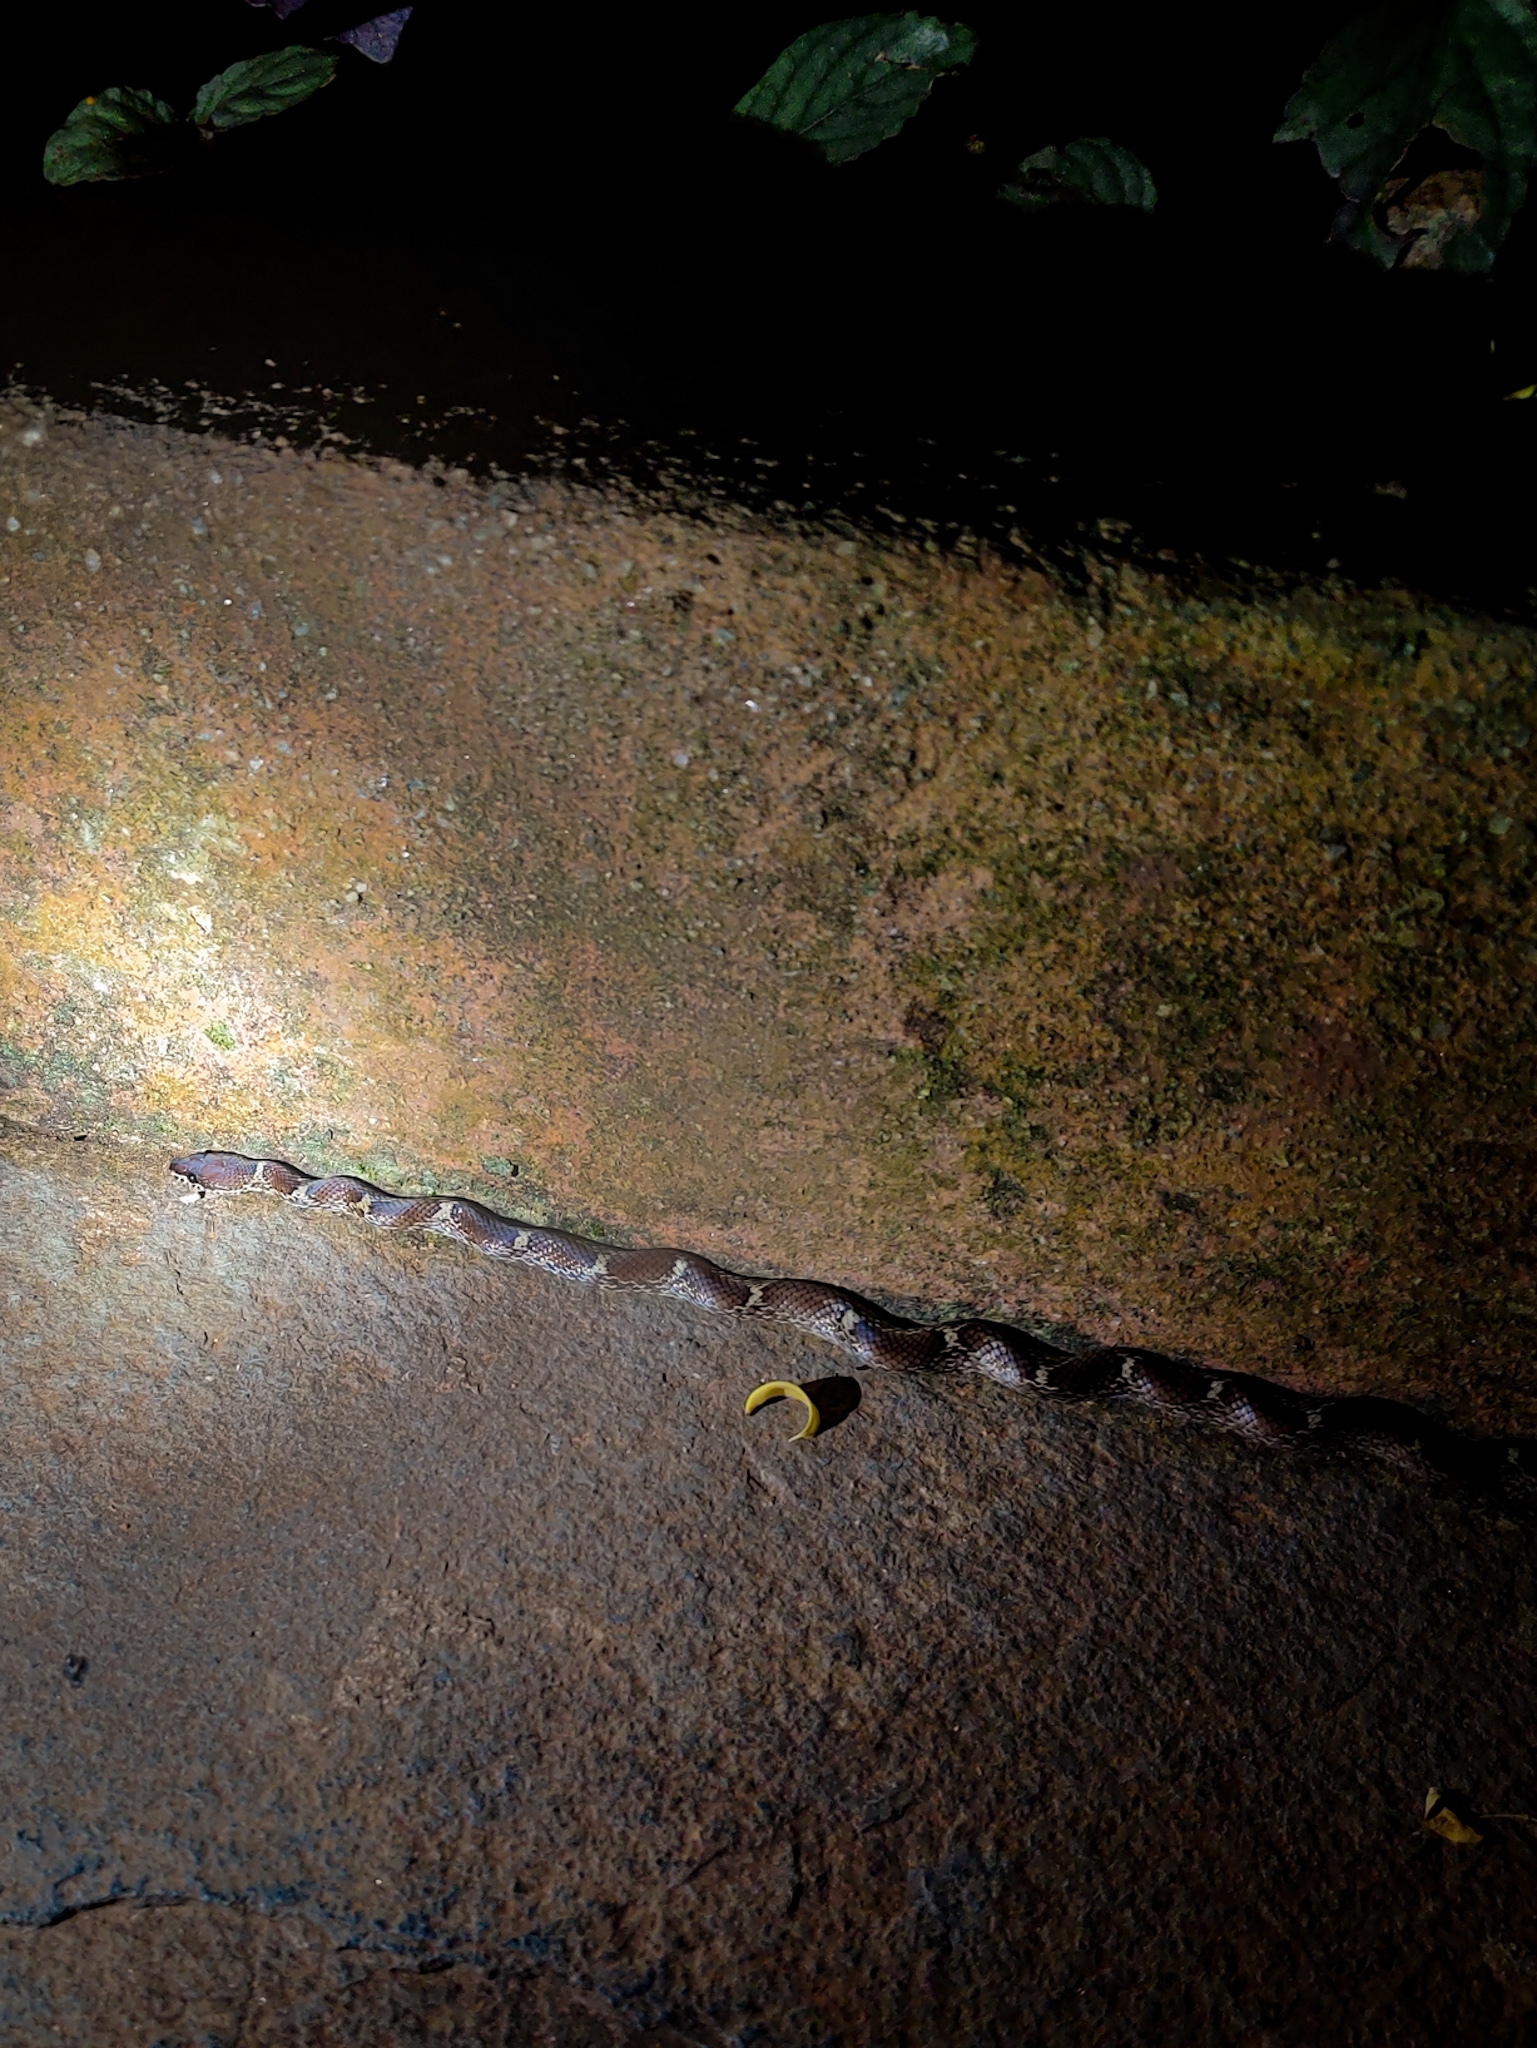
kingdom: Animalia
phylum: Chordata
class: Squamata
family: Colubridae
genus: Lycodon
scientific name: Lycodon fasciolatus
